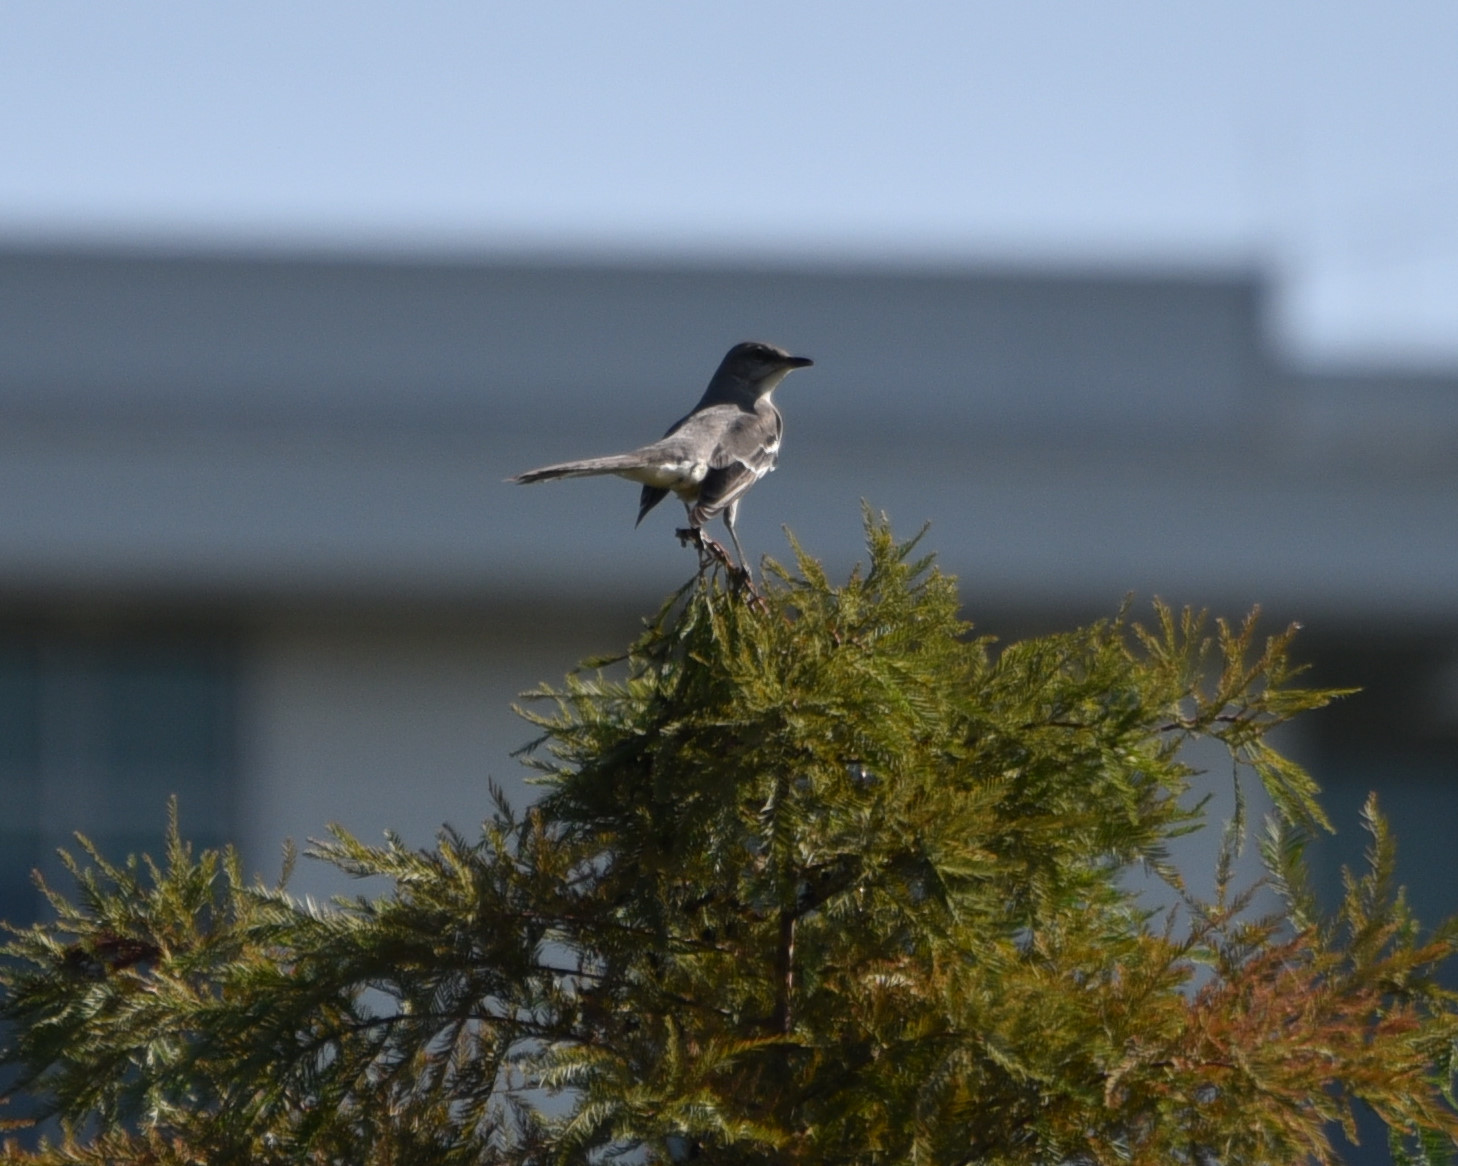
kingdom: Animalia
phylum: Chordata
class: Aves
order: Passeriformes
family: Mimidae
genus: Mimus
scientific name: Mimus polyglottos
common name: Northern mockingbird
